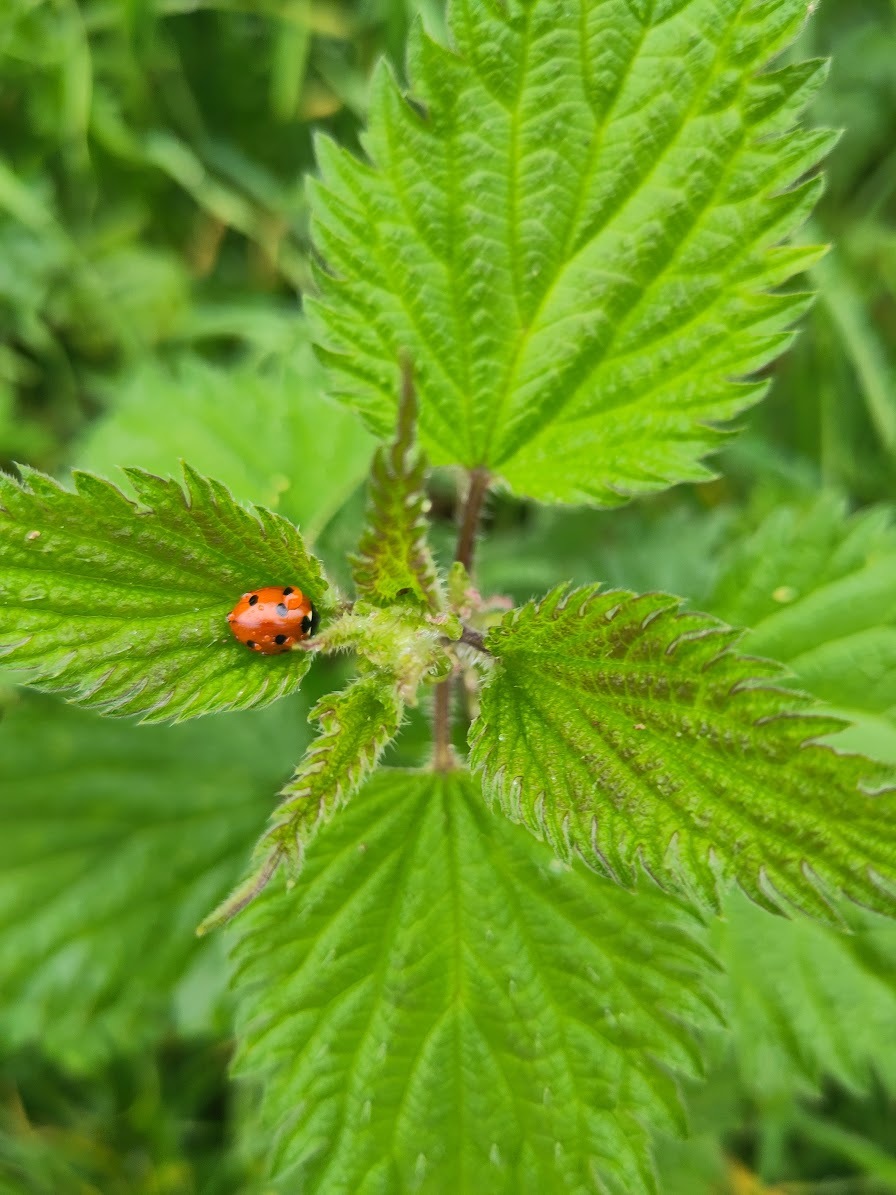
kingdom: Animalia
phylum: Arthropoda
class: Insecta
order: Coleoptera
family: Coccinellidae
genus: Coccinella
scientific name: Coccinella septempunctata
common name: Sevenspotted lady beetle
